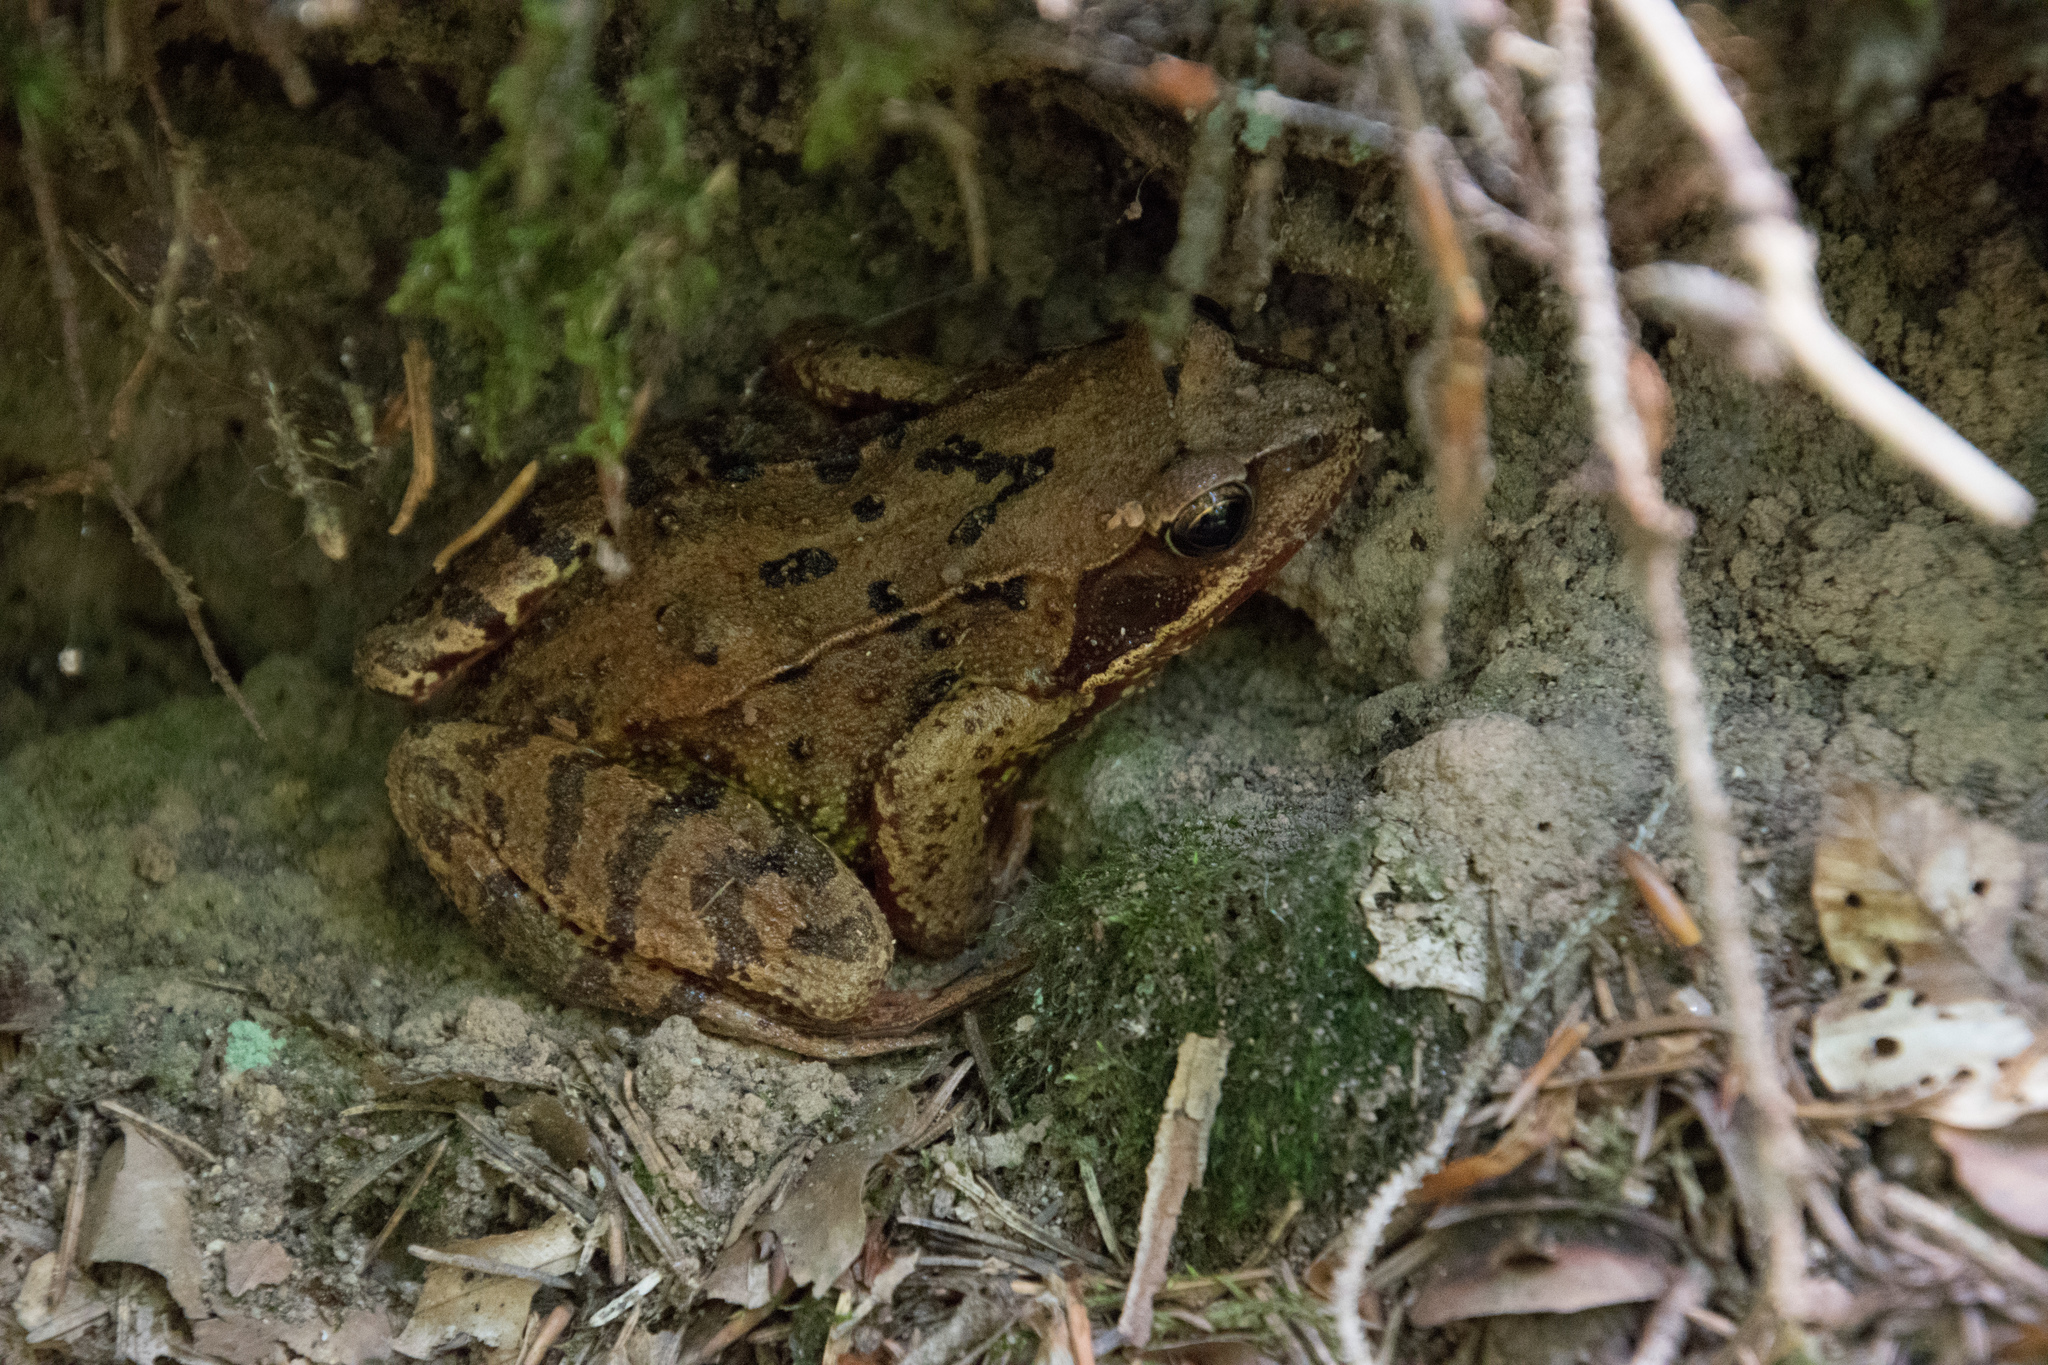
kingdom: Animalia
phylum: Chordata
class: Amphibia
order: Anura
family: Ranidae
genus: Rana
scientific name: Rana temporaria
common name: Common frog
